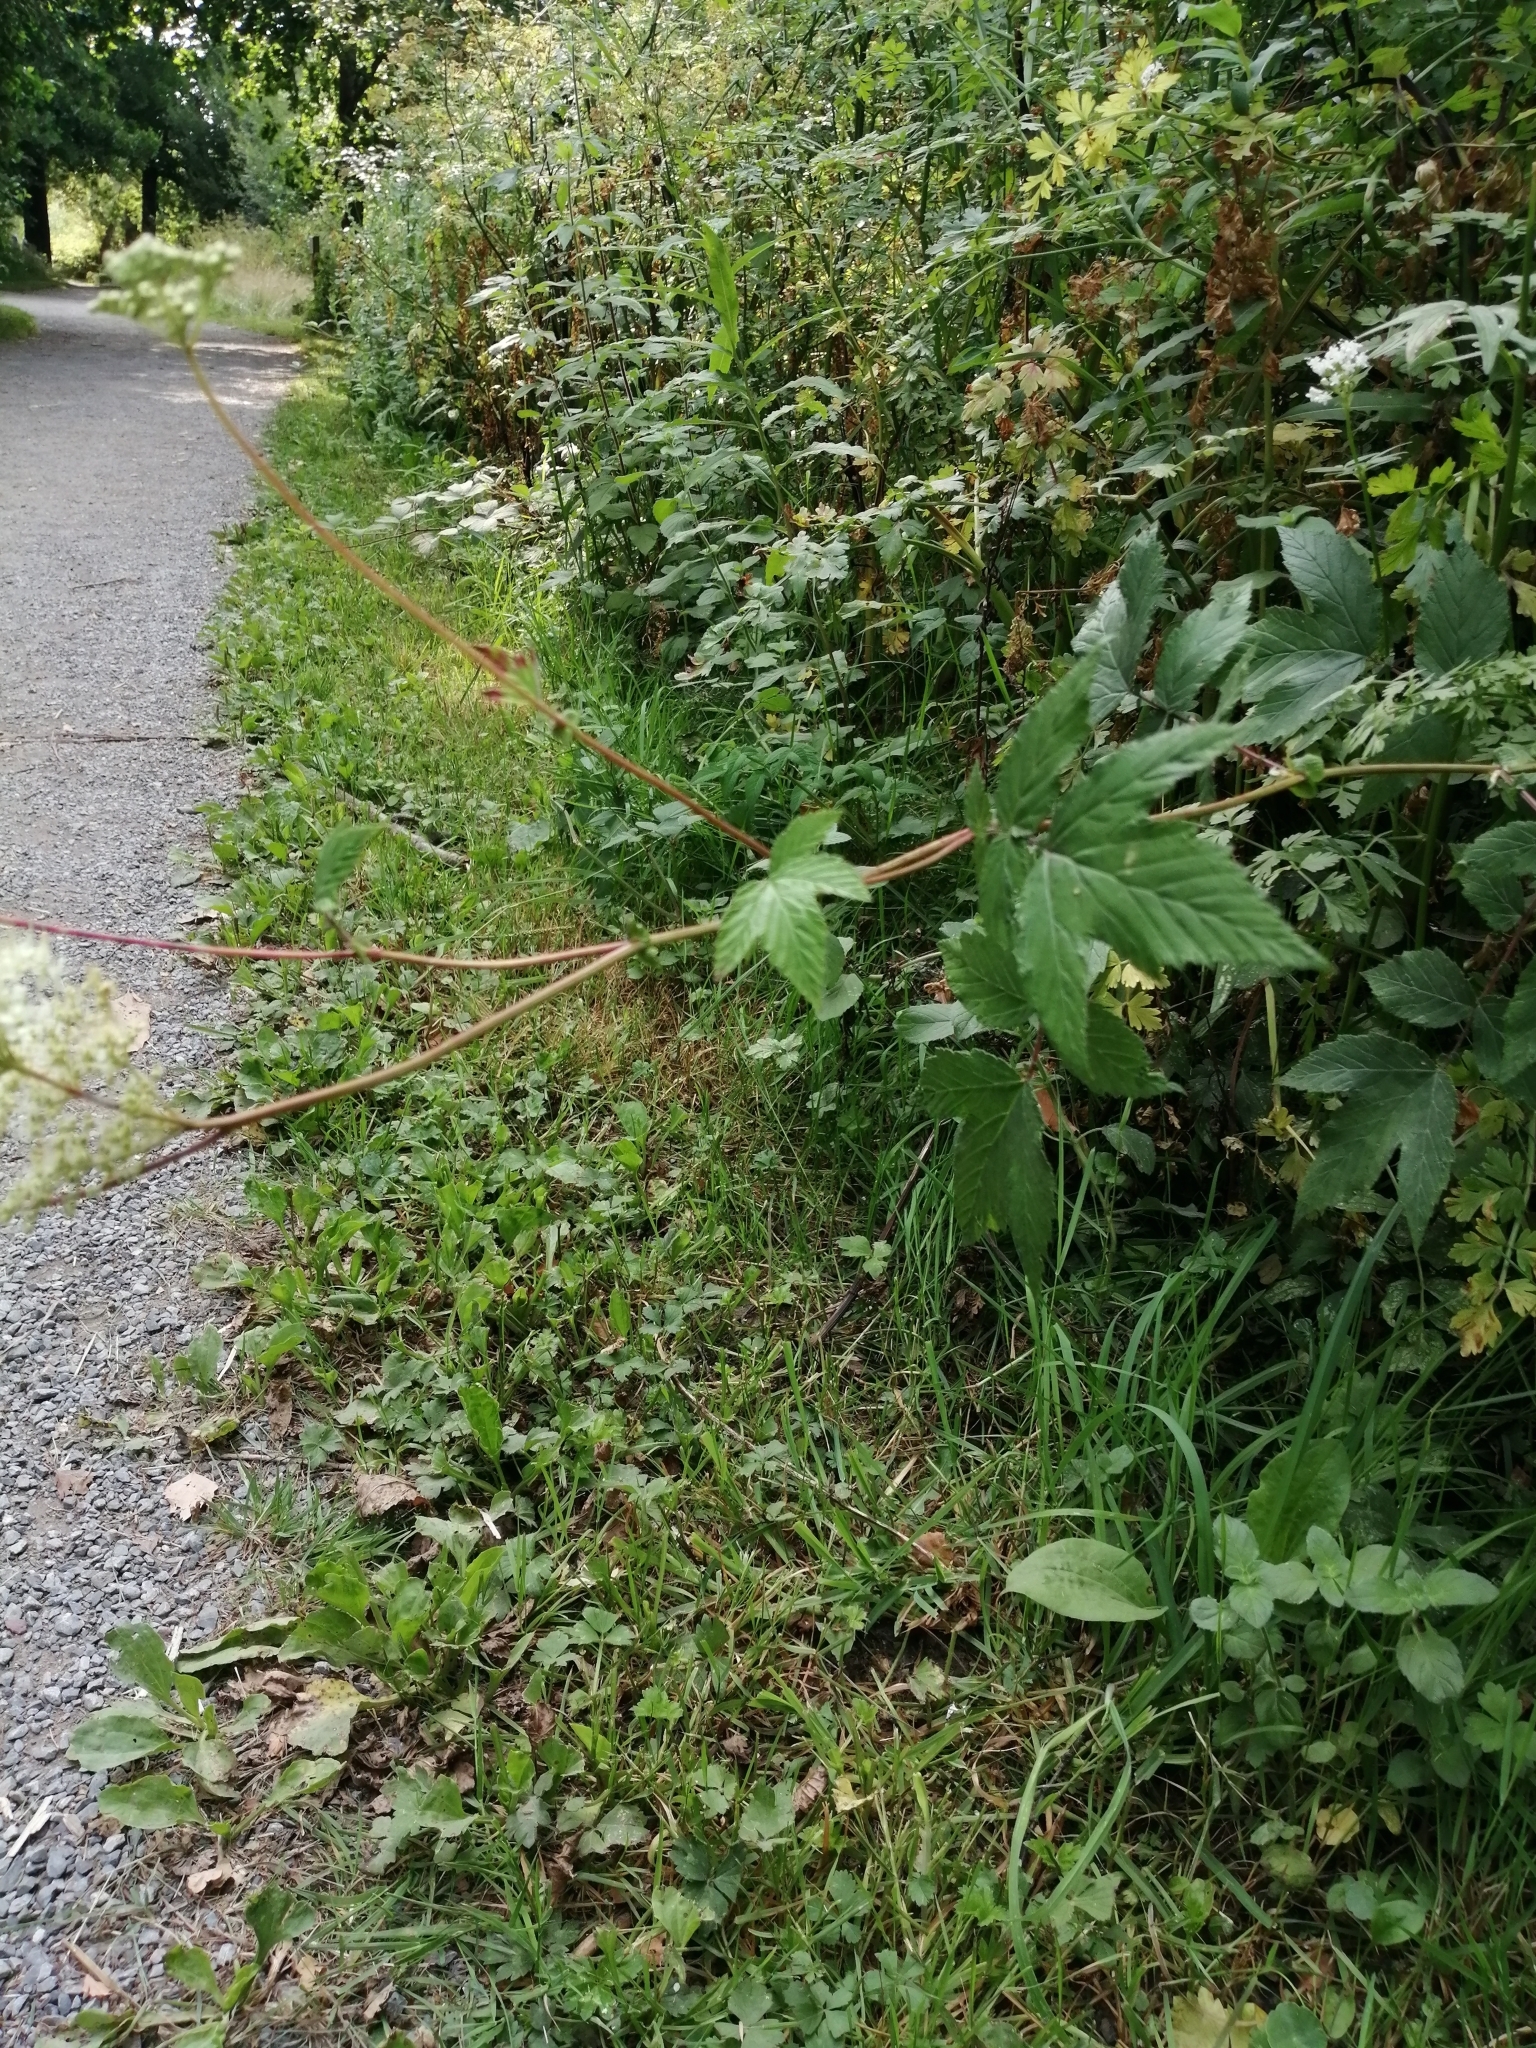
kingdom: Plantae
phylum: Tracheophyta
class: Magnoliopsida
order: Rosales
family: Rosaceae
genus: Filipendula
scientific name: Filipendula ulmaria
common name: Meadowsweet
